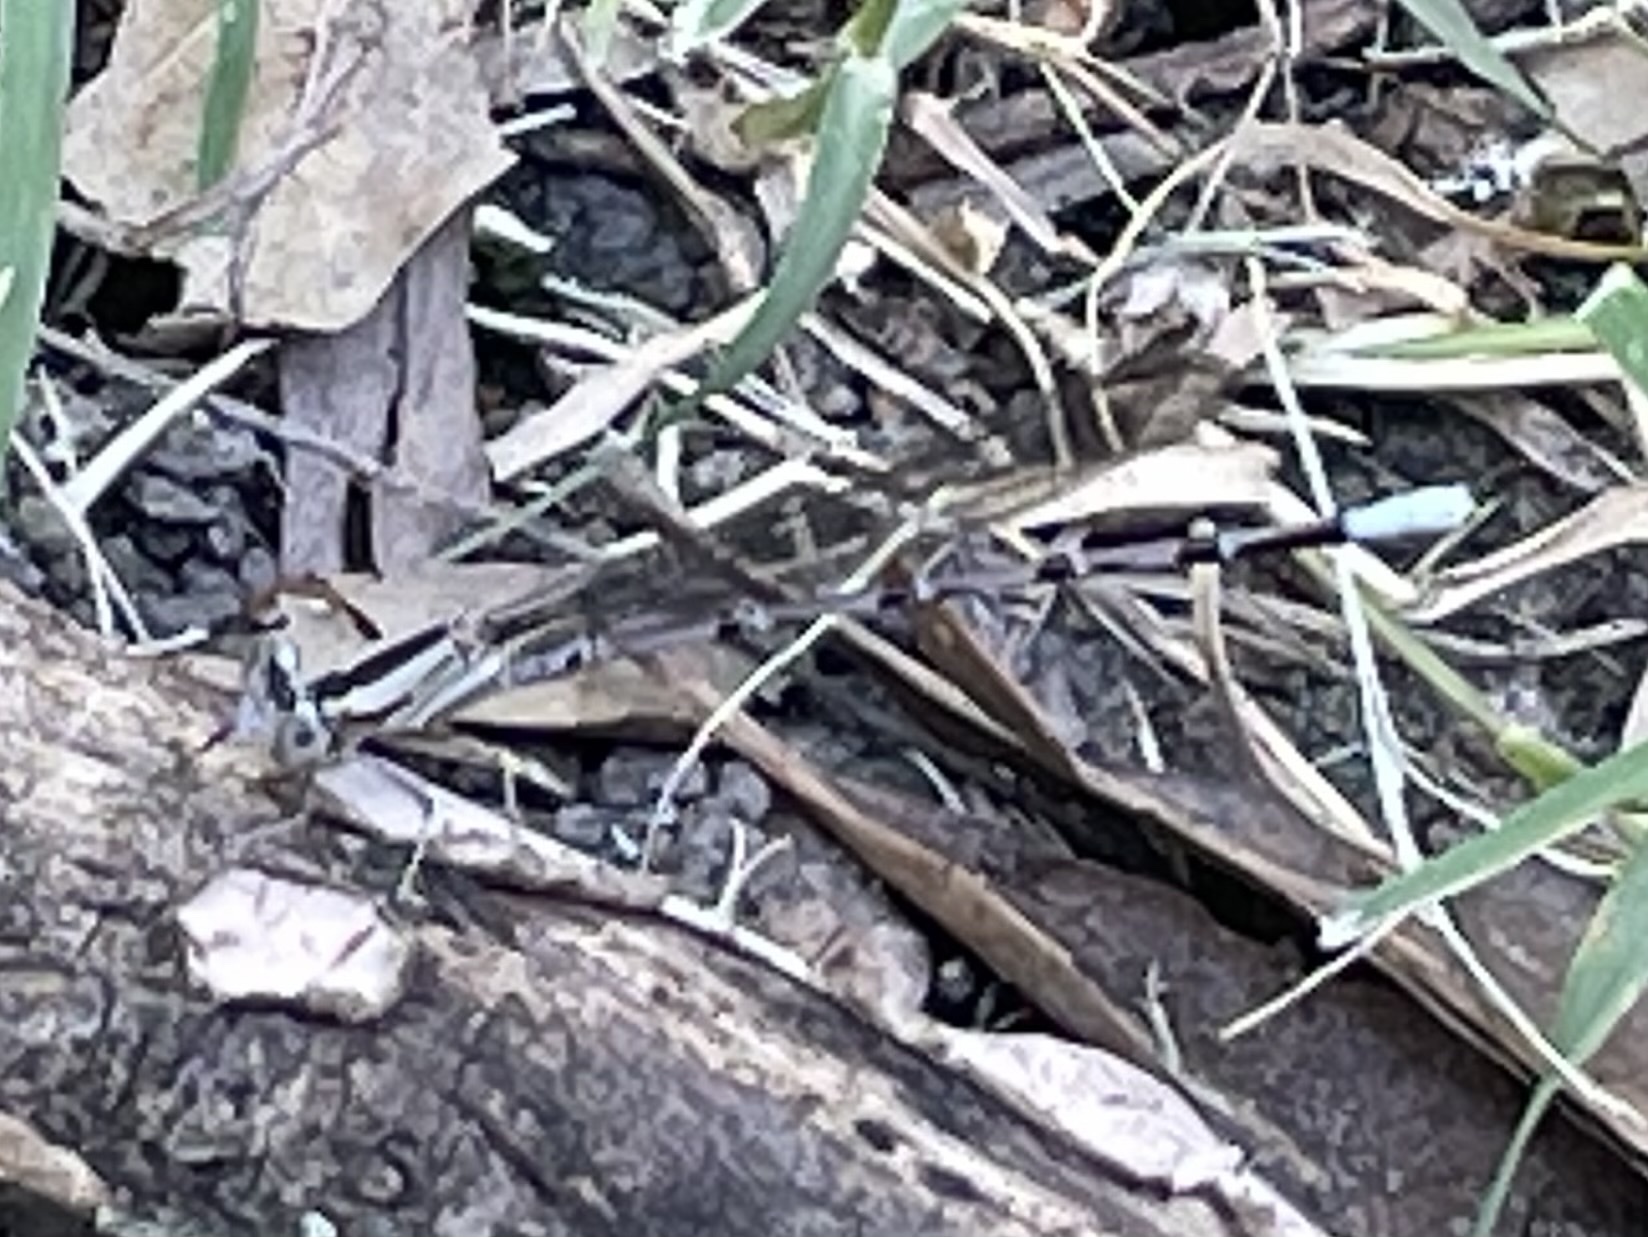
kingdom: Animalia
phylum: Arthropoda
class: Insecta
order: Odonata
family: Coenagrionidae
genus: Argia
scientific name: Argia funebris
